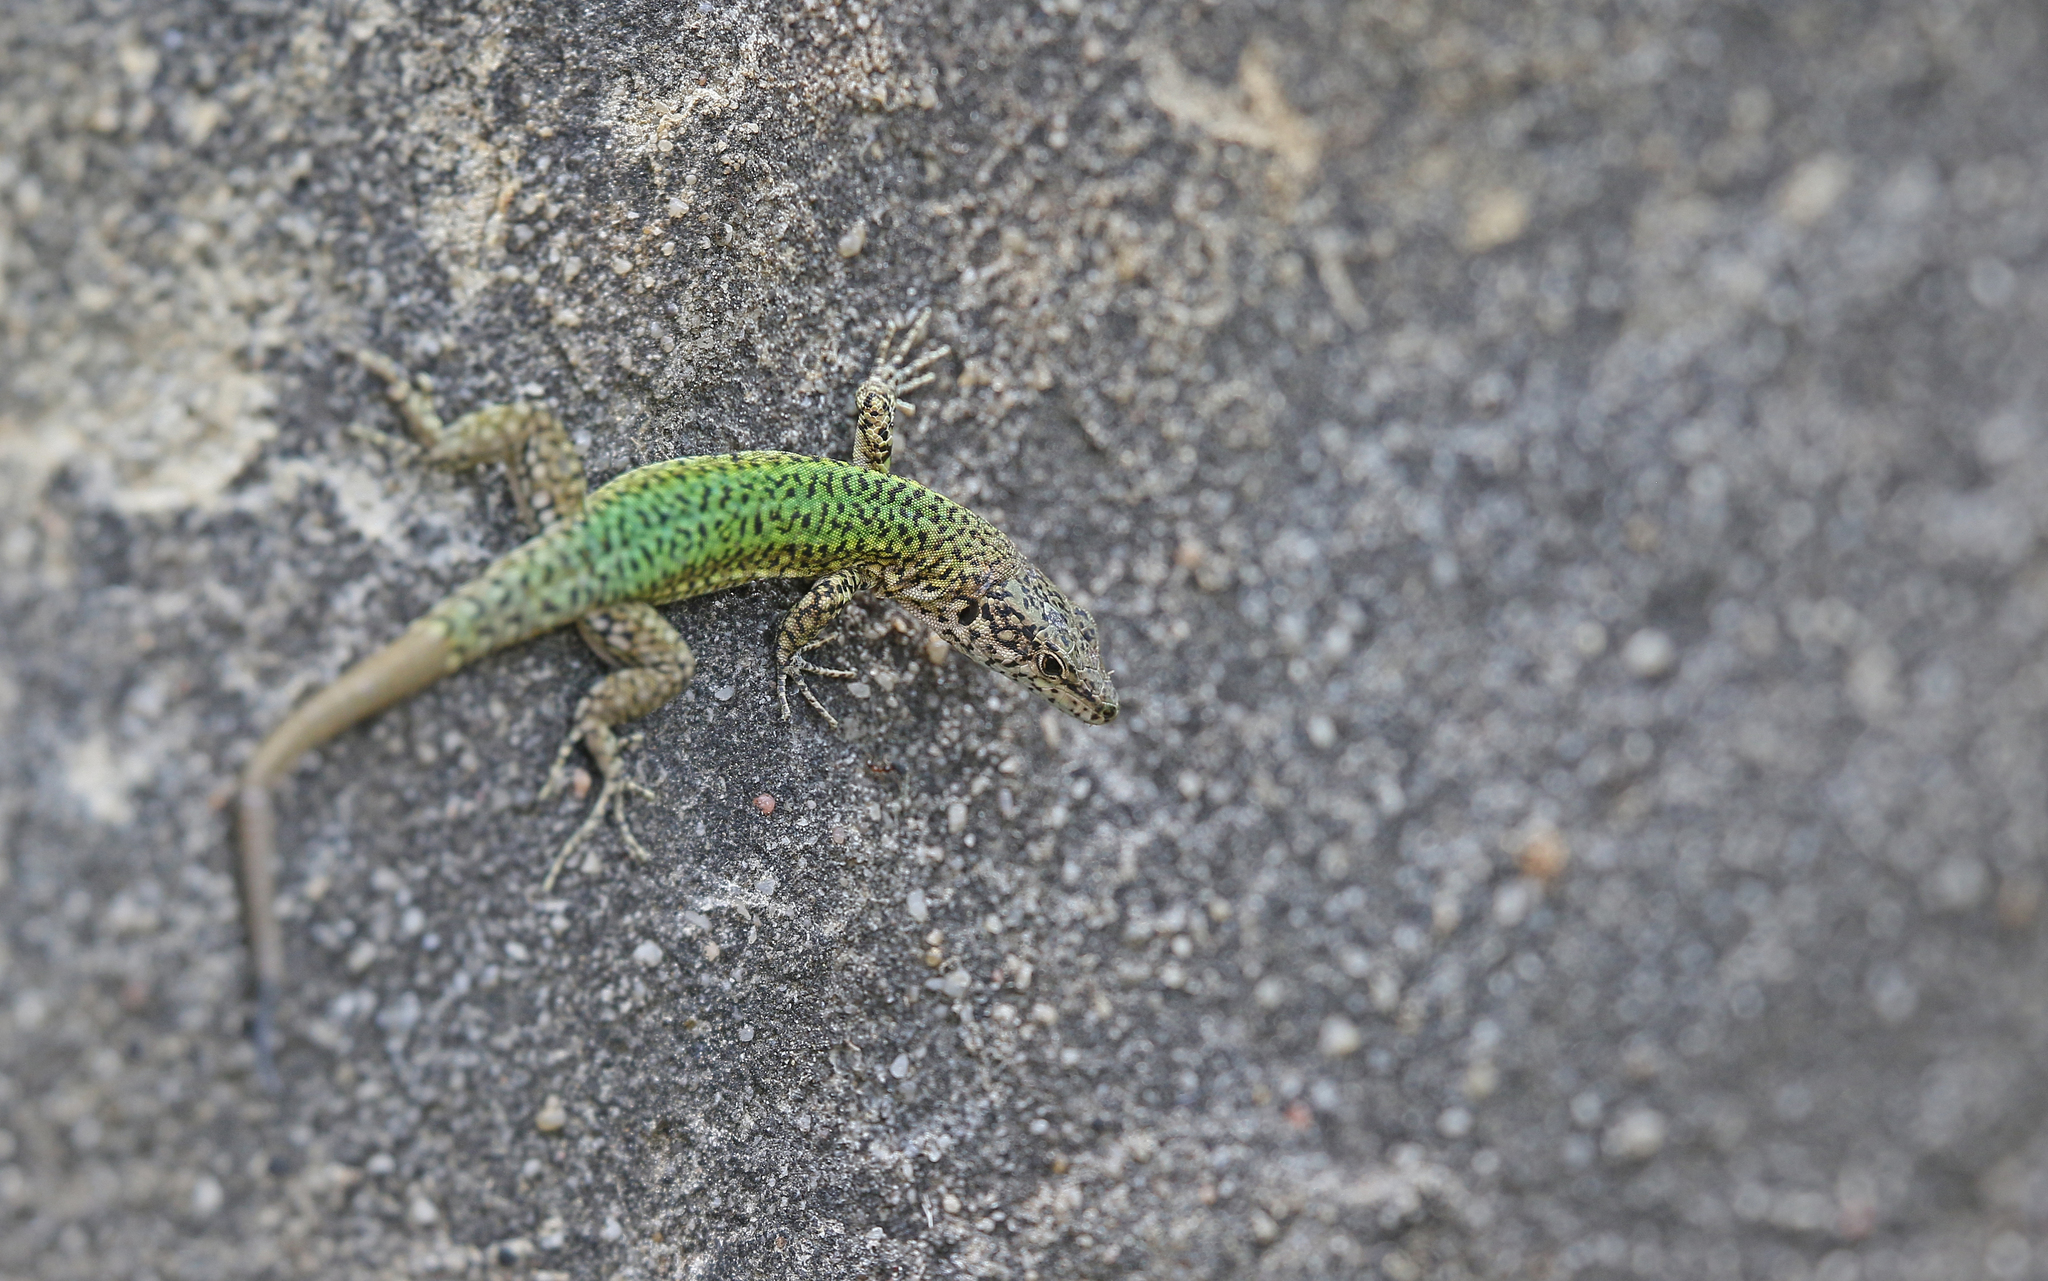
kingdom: Animalia
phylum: Chordata
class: Squamata
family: Lacertidae
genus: Podarcis
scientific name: Podarcis vaucheri
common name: Vaucher's wall lizard
